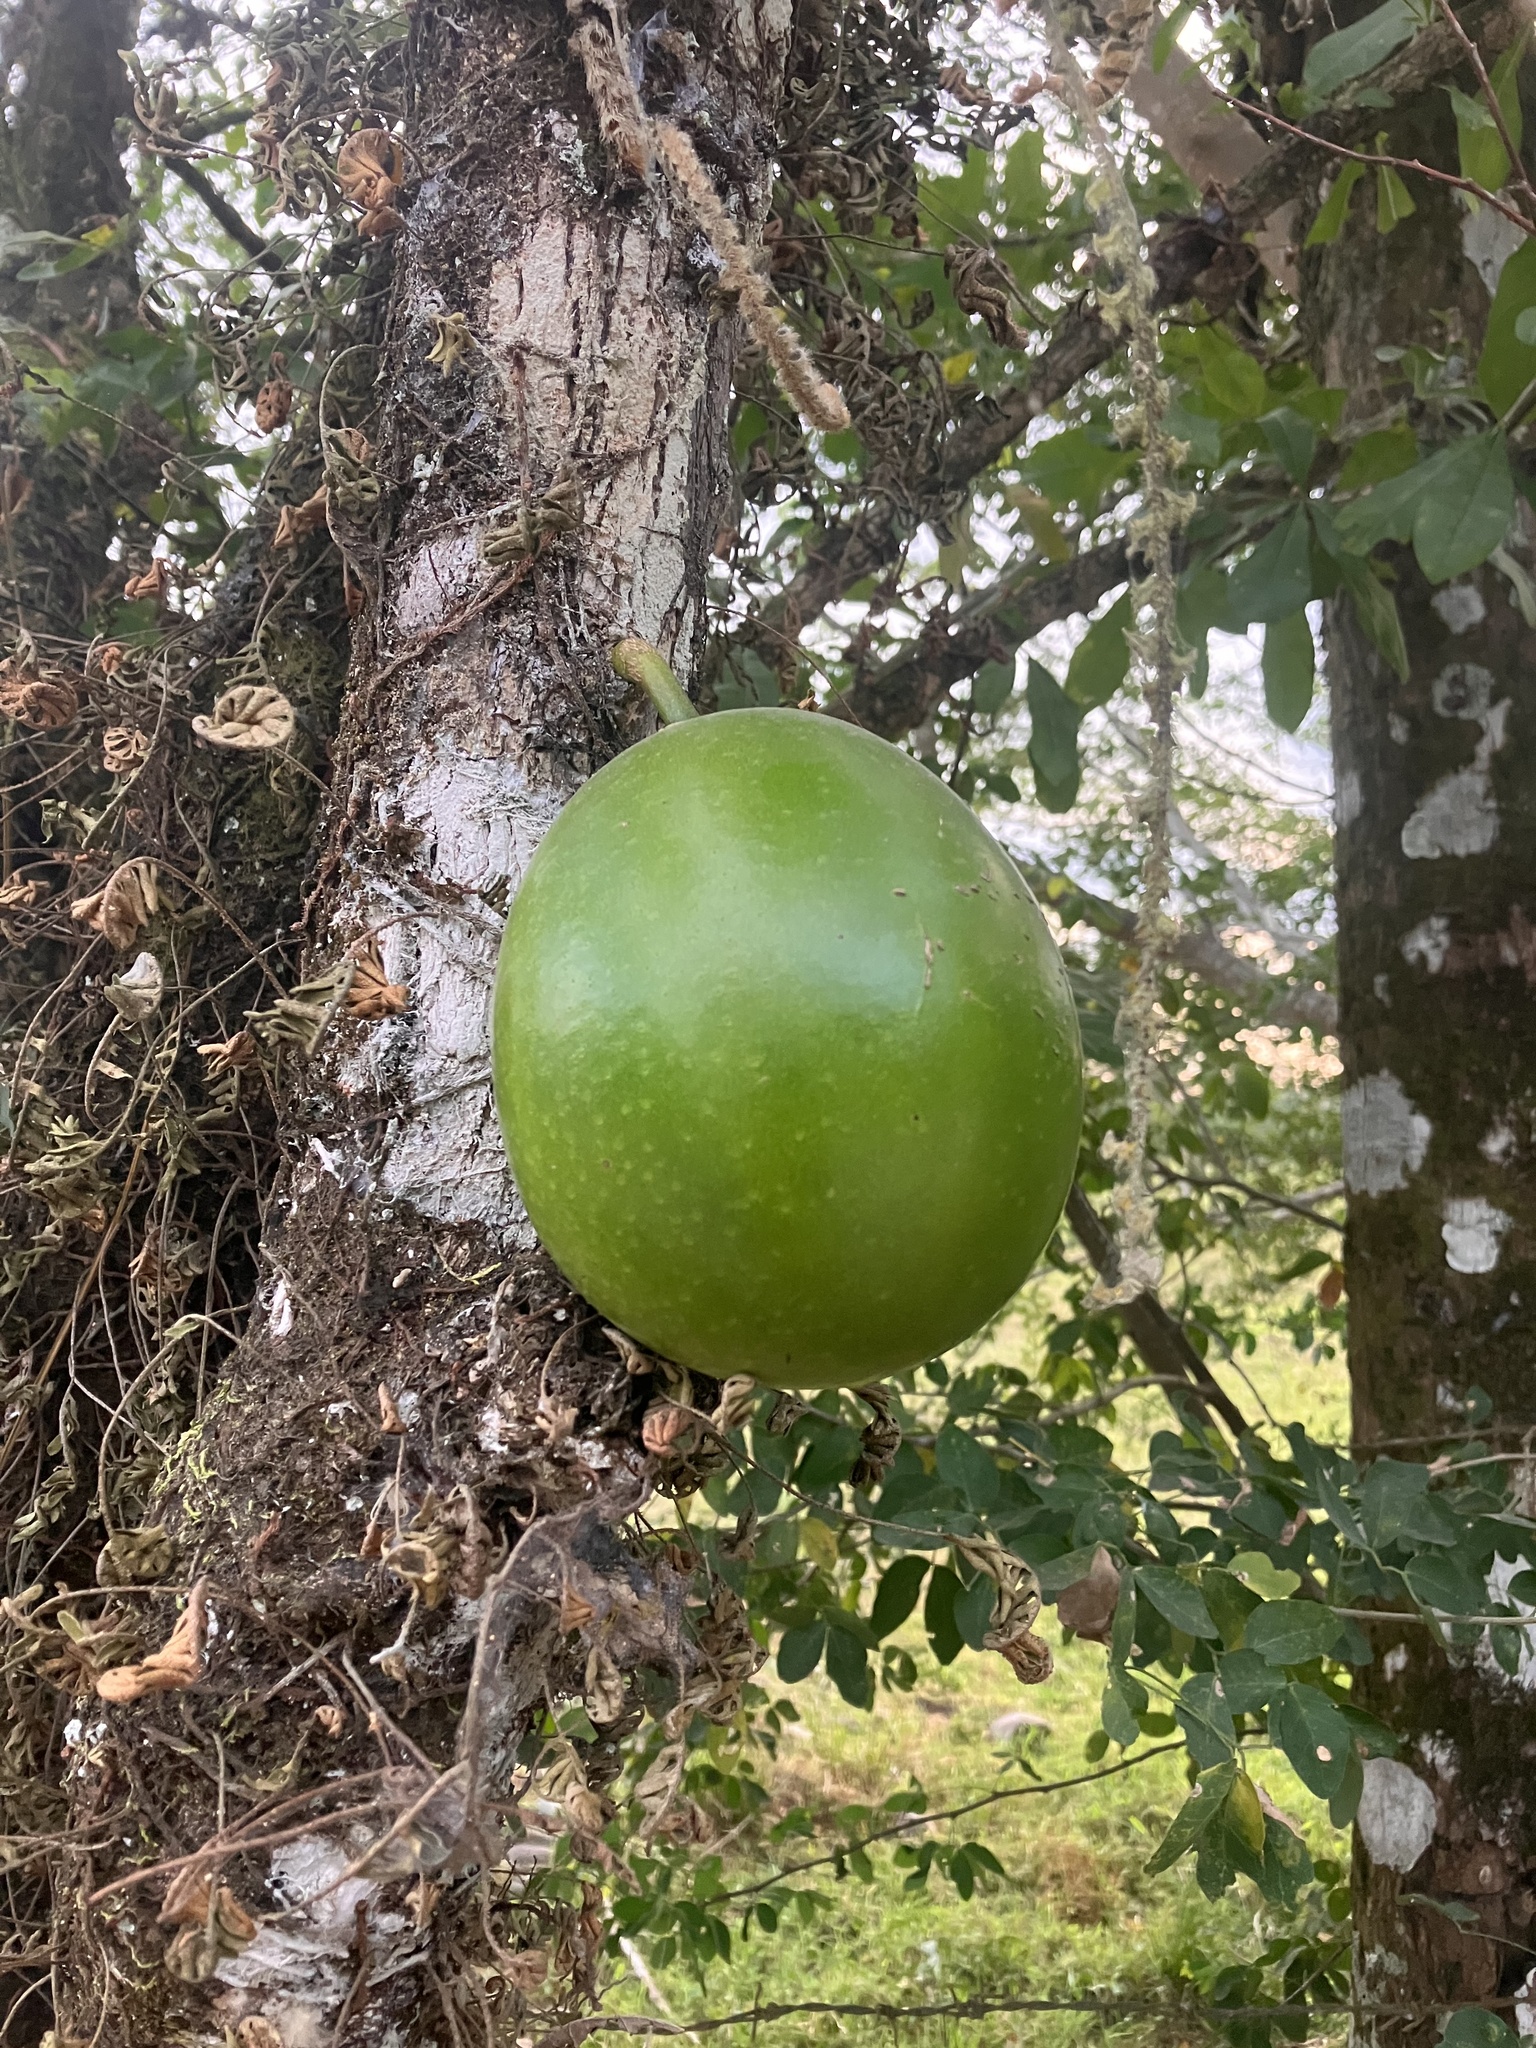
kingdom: Plantae
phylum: Tracheophyta
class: Magnoliopsida
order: Lamiales
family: Bignoniaceae
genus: Crescentia
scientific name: Crescentia cujete
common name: Calabash
